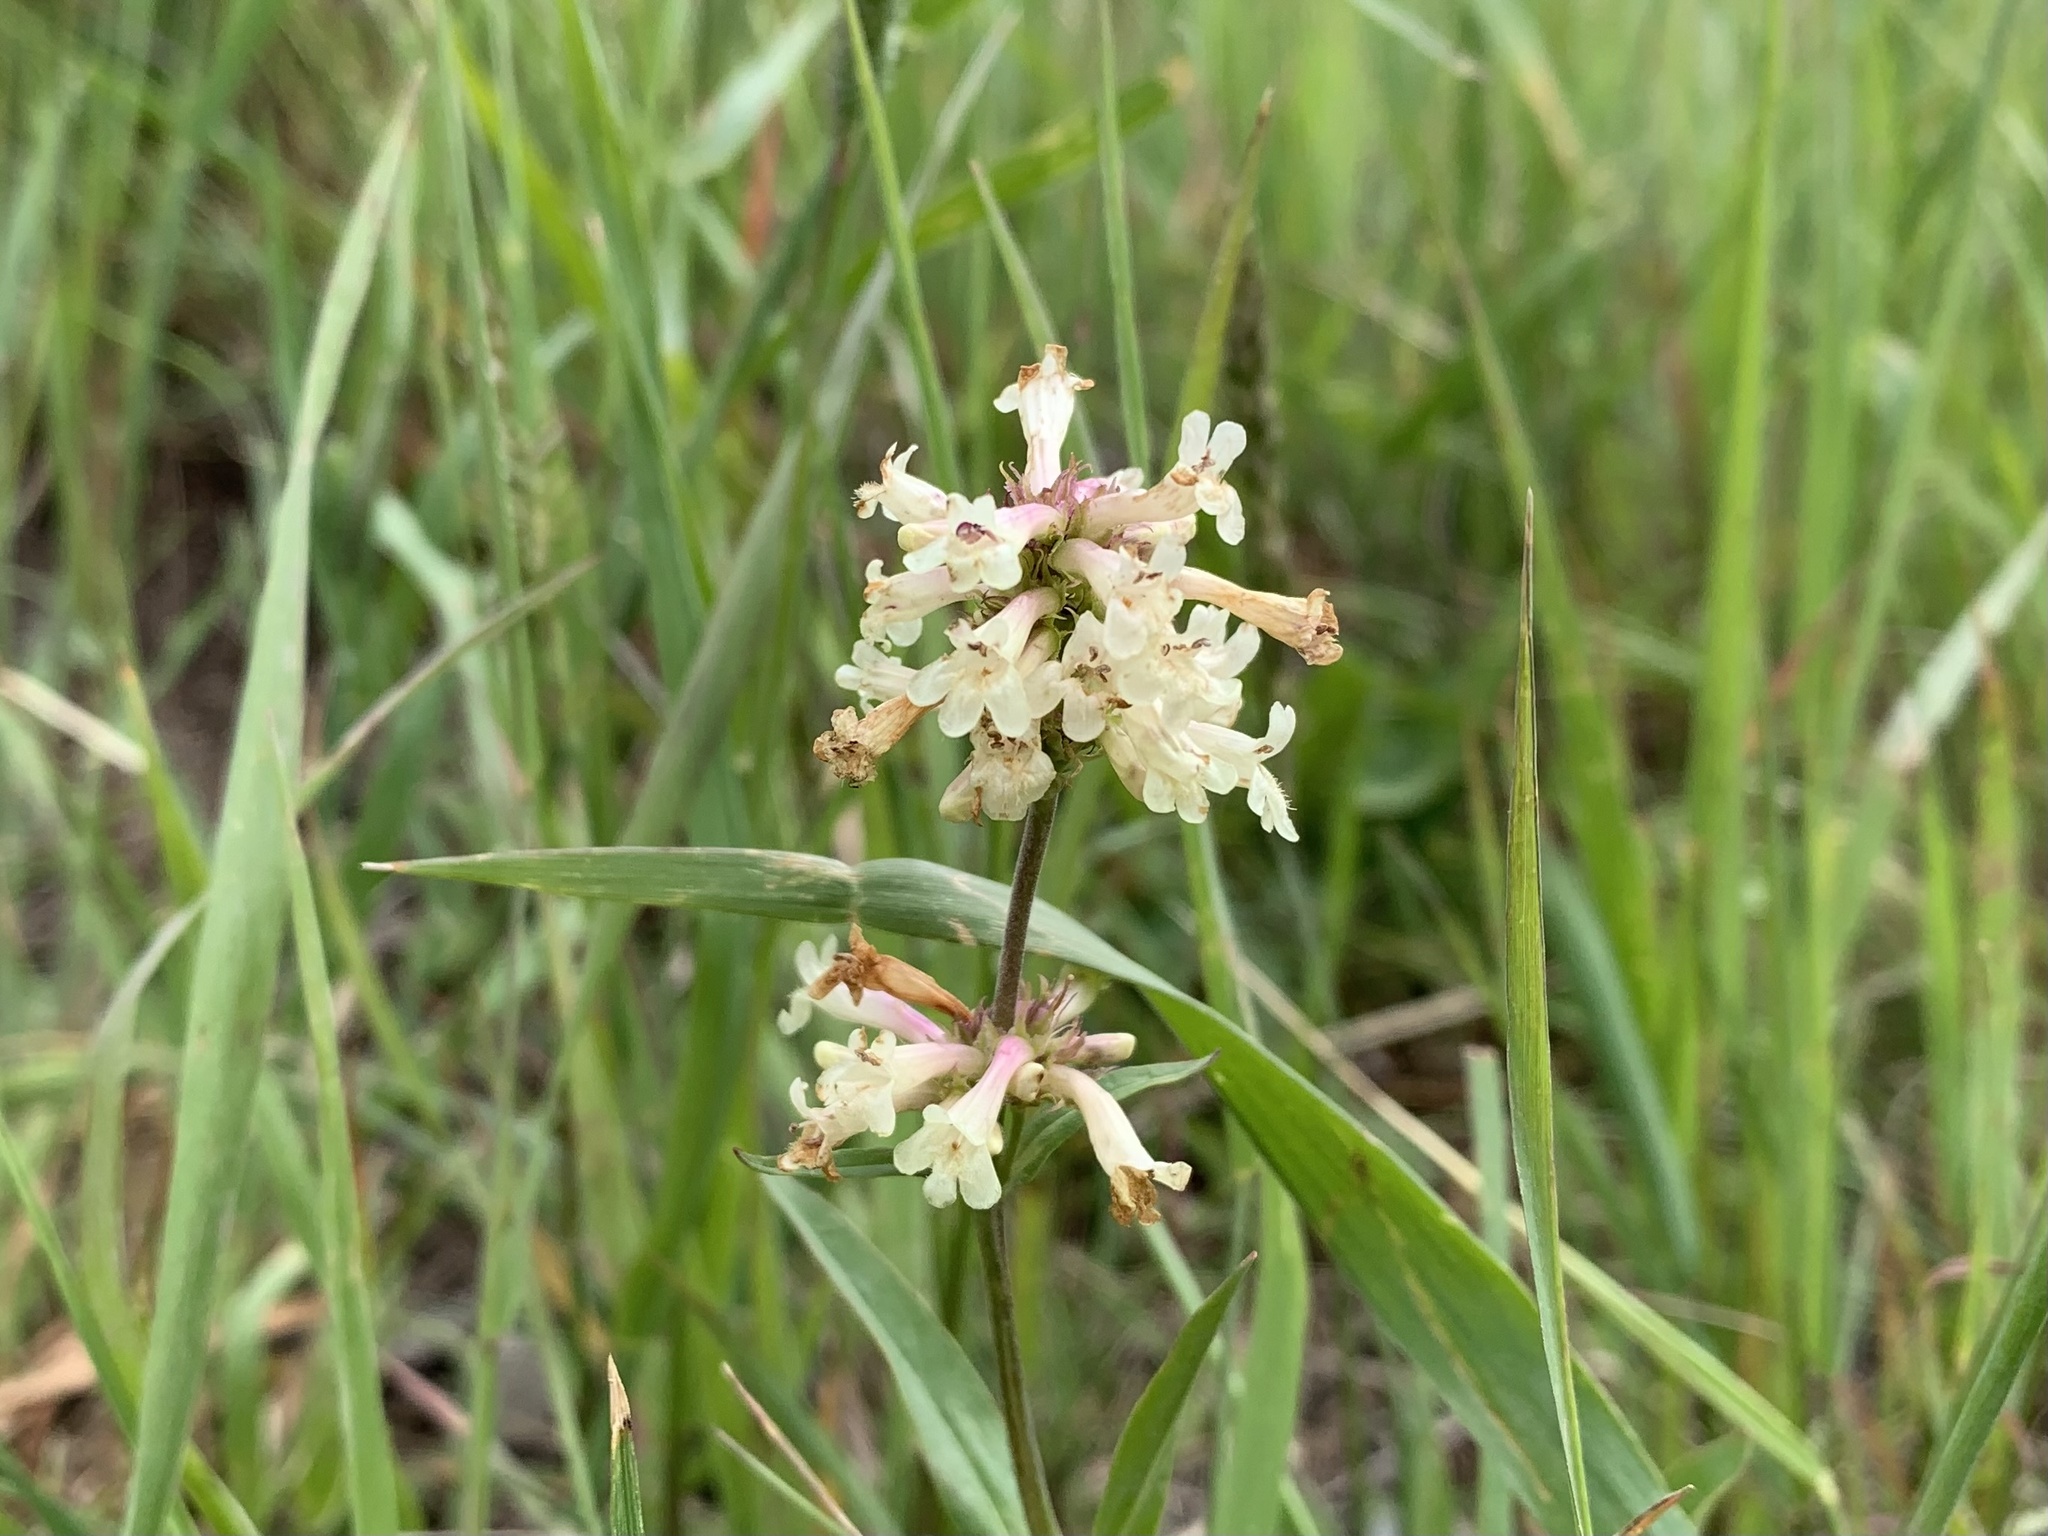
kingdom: Plantae
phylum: Tracheophyta
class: Magnoliopsida
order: Lamiales
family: Plantaginaceae
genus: Penstemon
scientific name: Penstemon confertus
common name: Lesser yellow beardtongue
